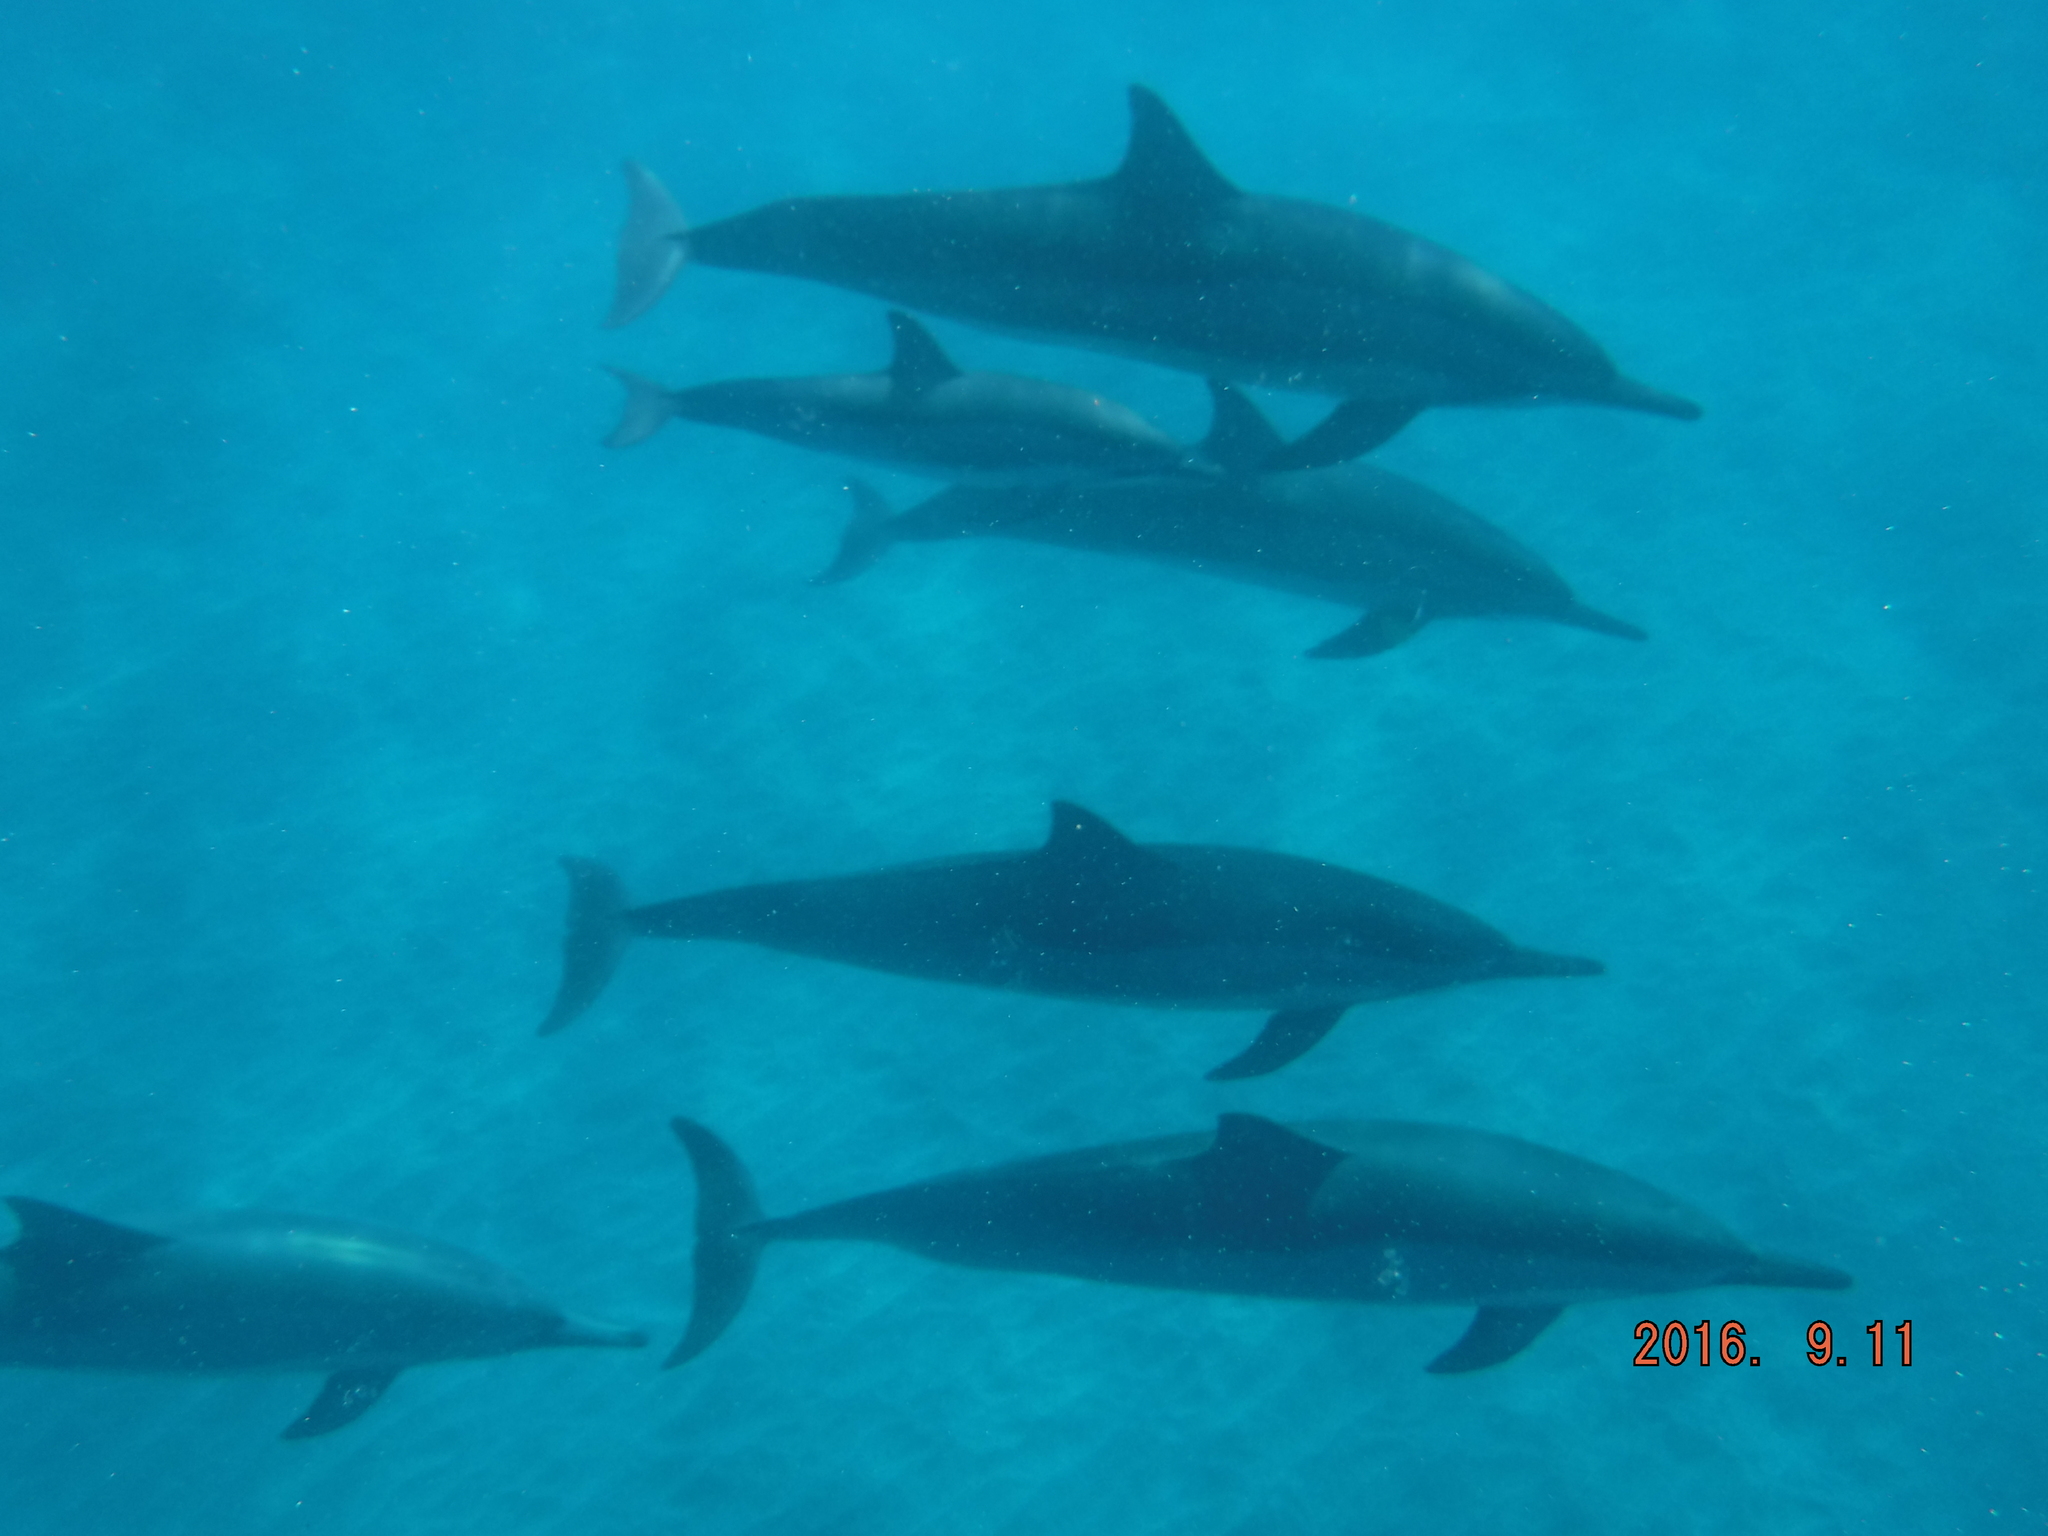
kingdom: Animalia
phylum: Chordata
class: Mammalia
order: Cetacea
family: Delphinidae
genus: Stenella
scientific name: Stenella longirostris
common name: Spinner dolphin
